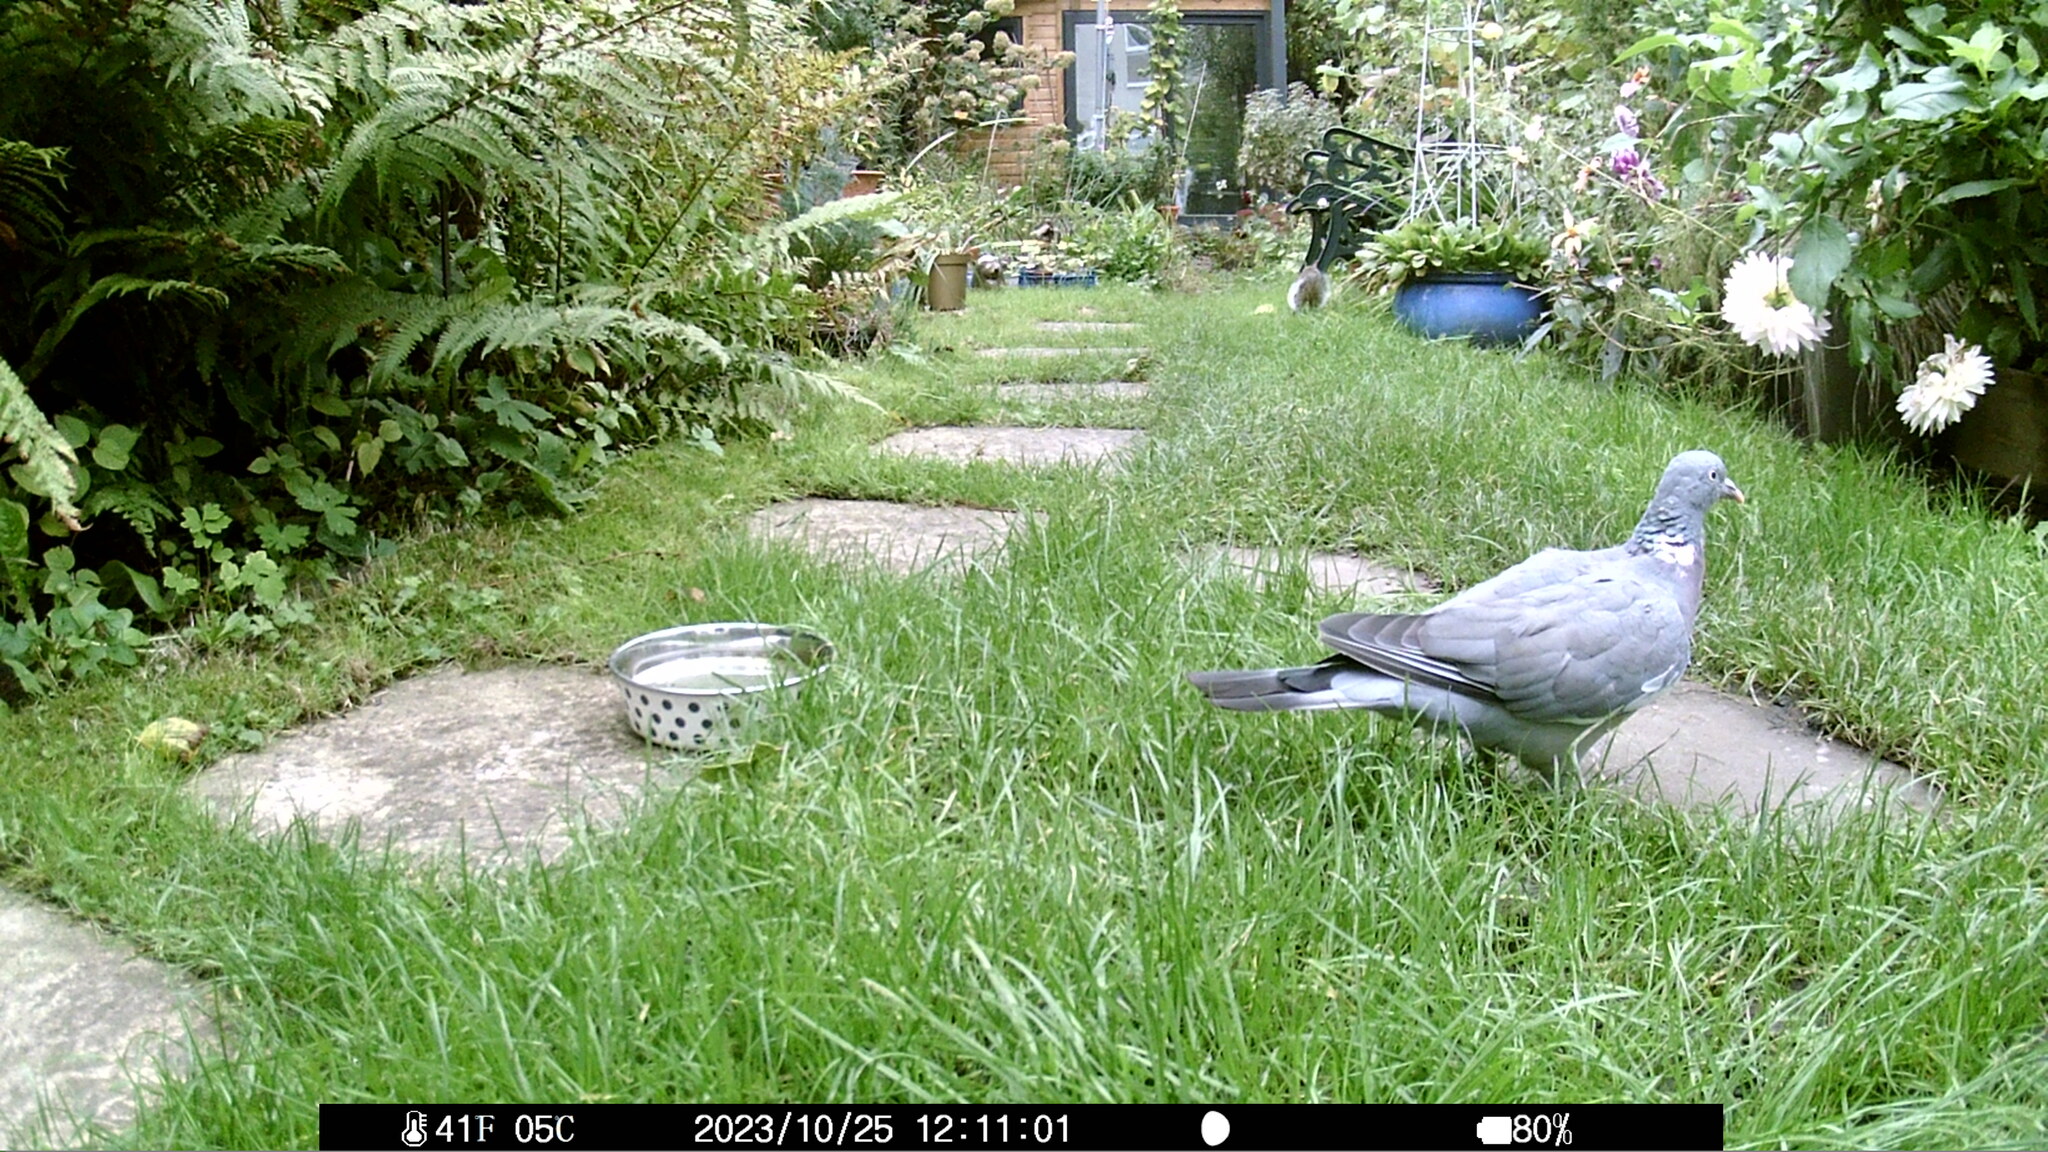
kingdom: Animalia
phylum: Chordata
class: Aves
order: Columbiformes
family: Columbidae
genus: Columba
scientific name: Columba palumbus
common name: Common wood pigeon
